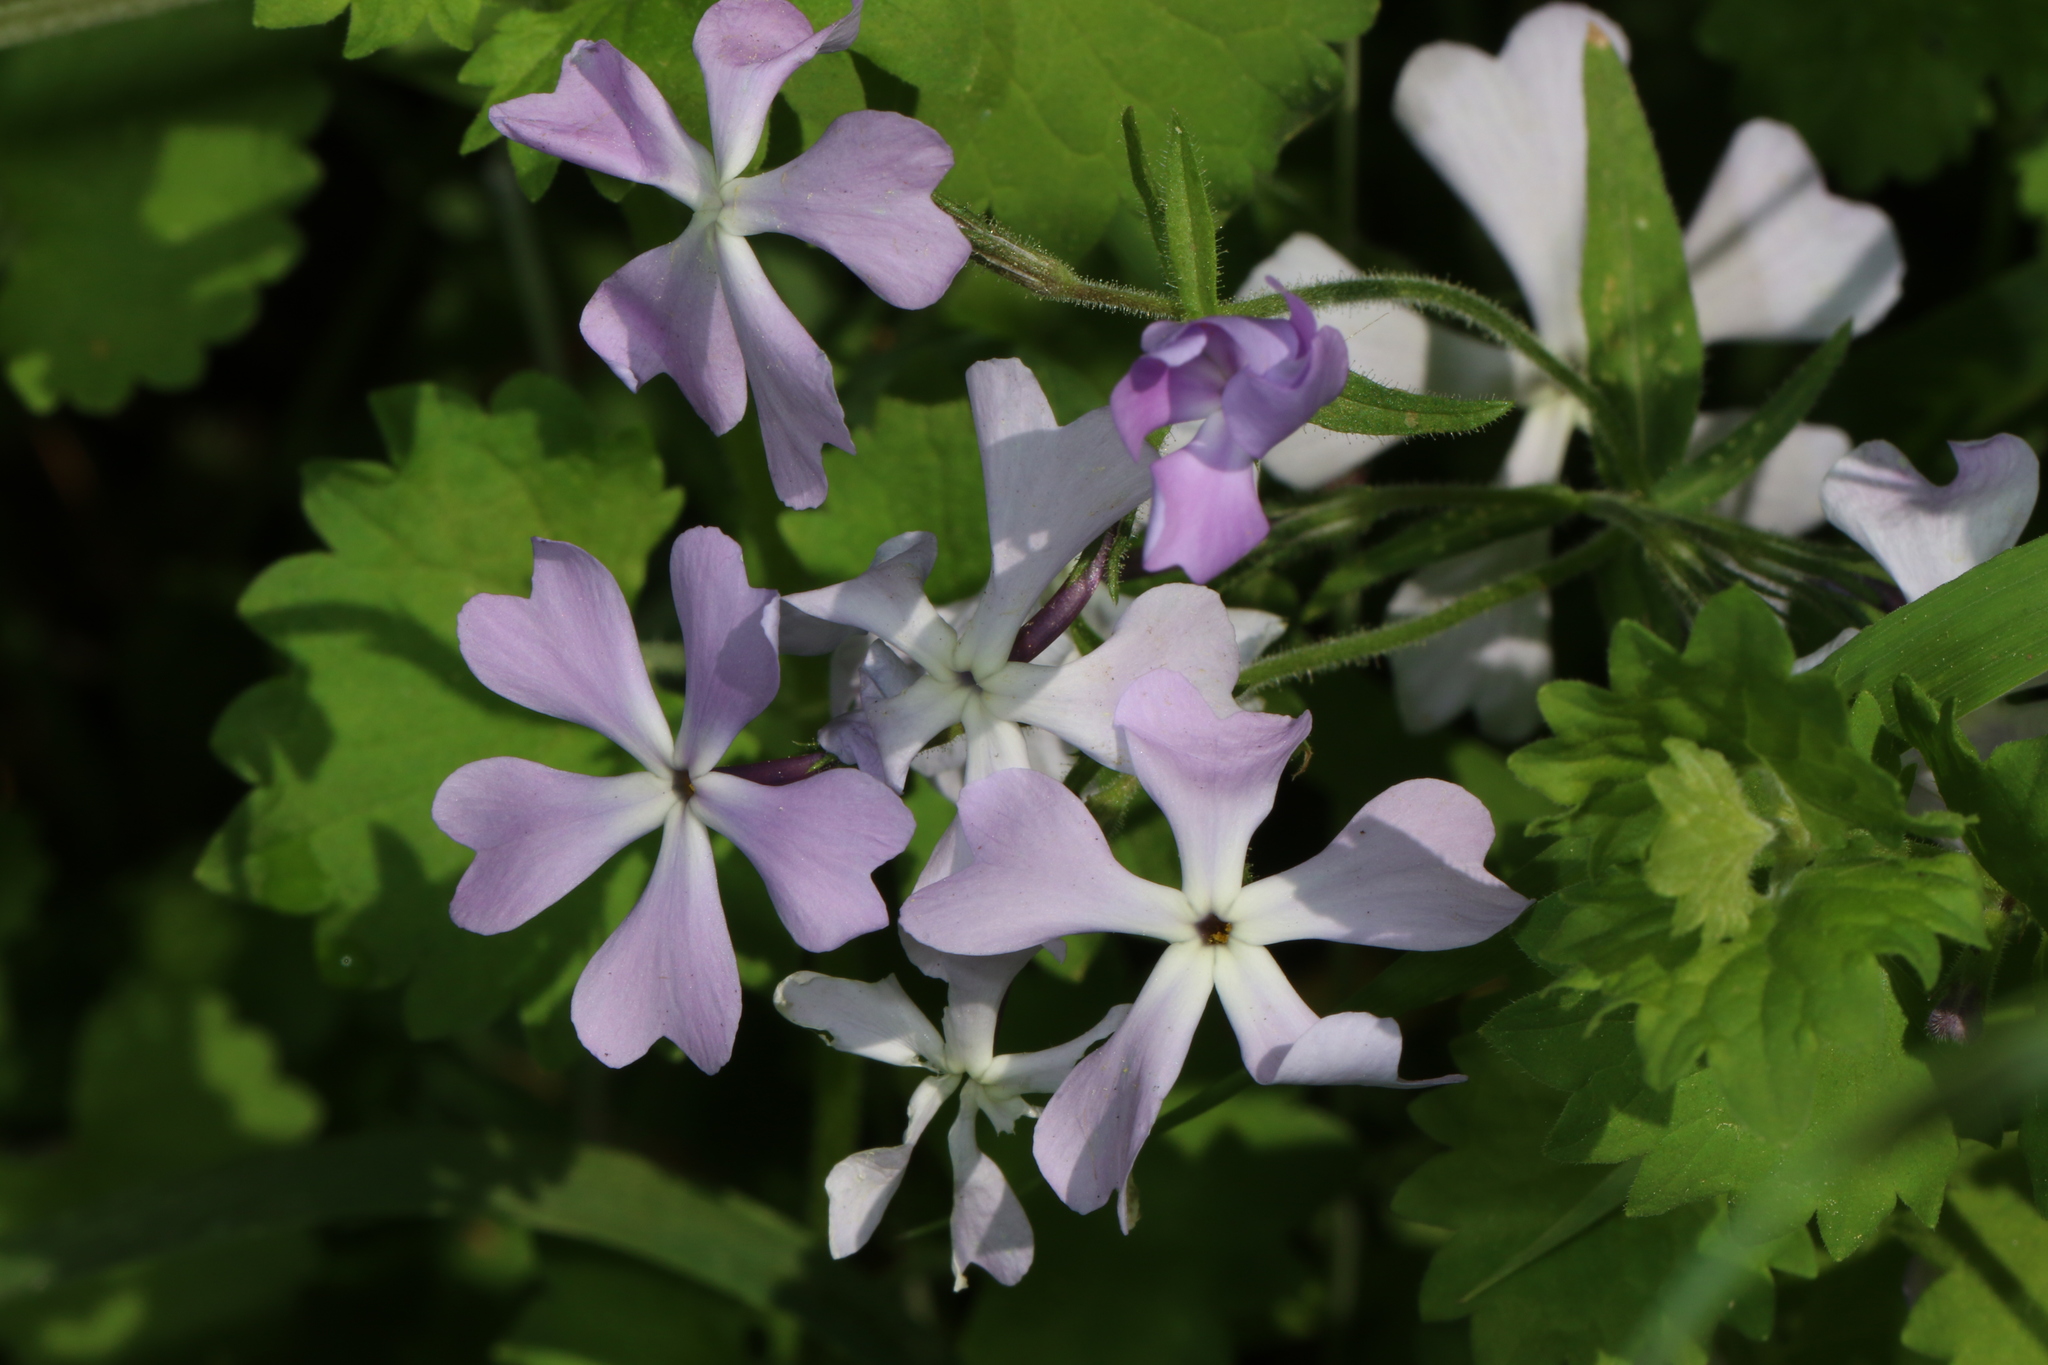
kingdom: Plantae
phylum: Tracheophyta
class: Magnoliopsida
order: Ericales
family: Polemoniaceae
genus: Phlox
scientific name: Phlox divaricata
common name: Blue phlox
